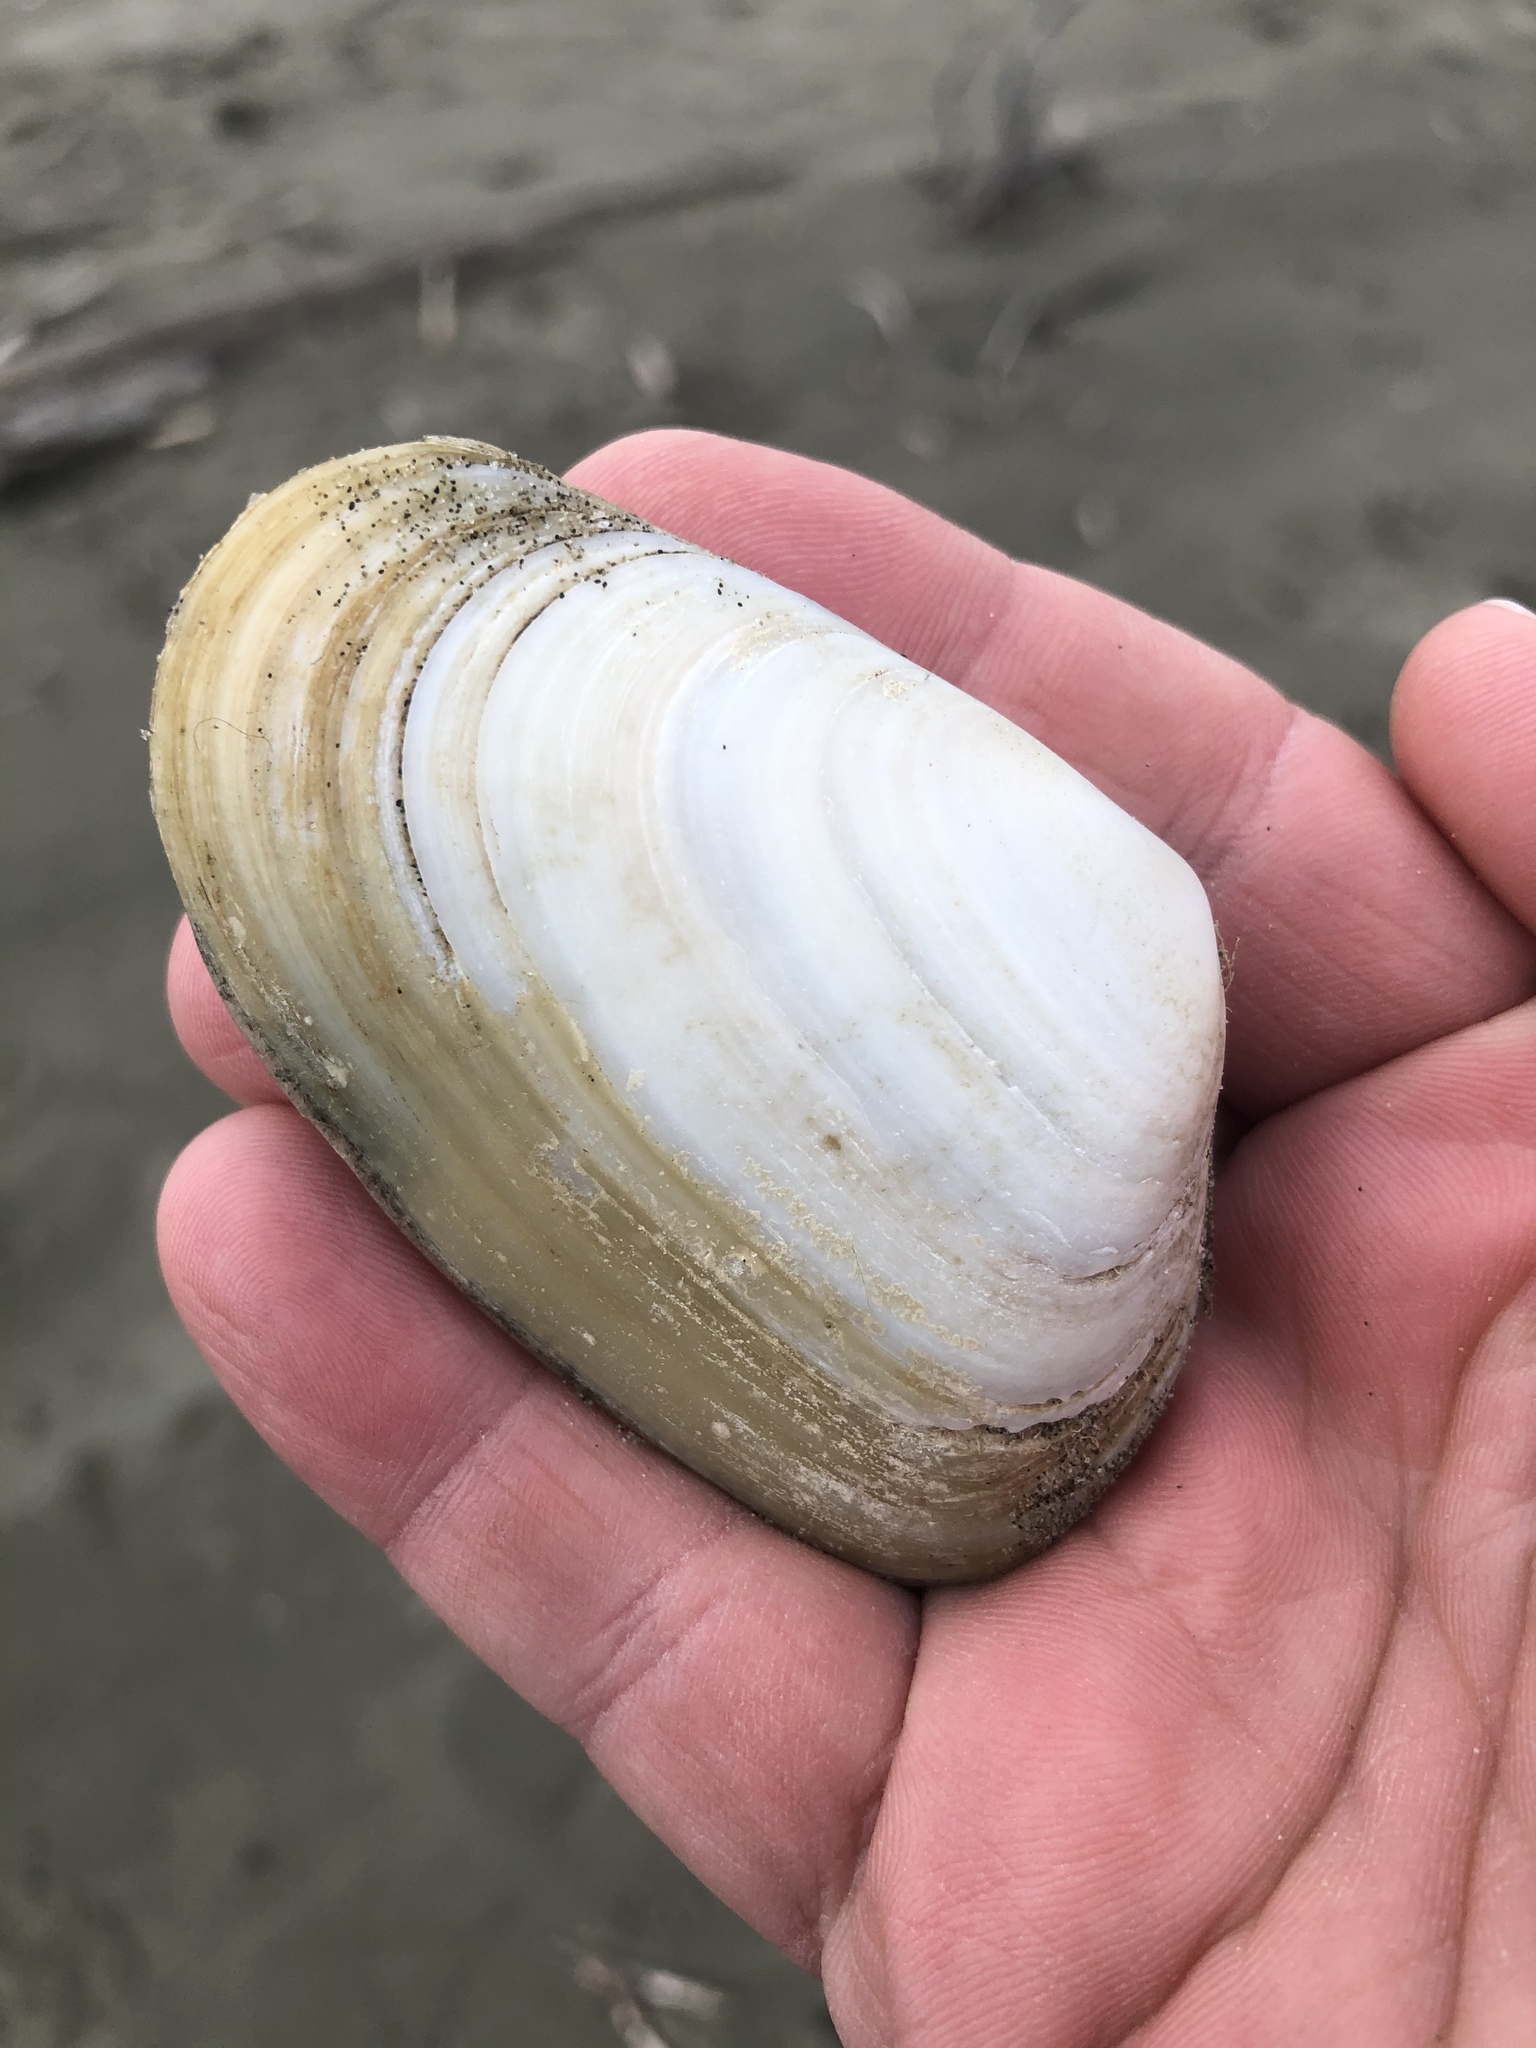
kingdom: Animalia
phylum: Mollusca
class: Bivalvia
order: Venerida
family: Mesodesmatidae
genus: Paphies
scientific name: Paphies donacina
